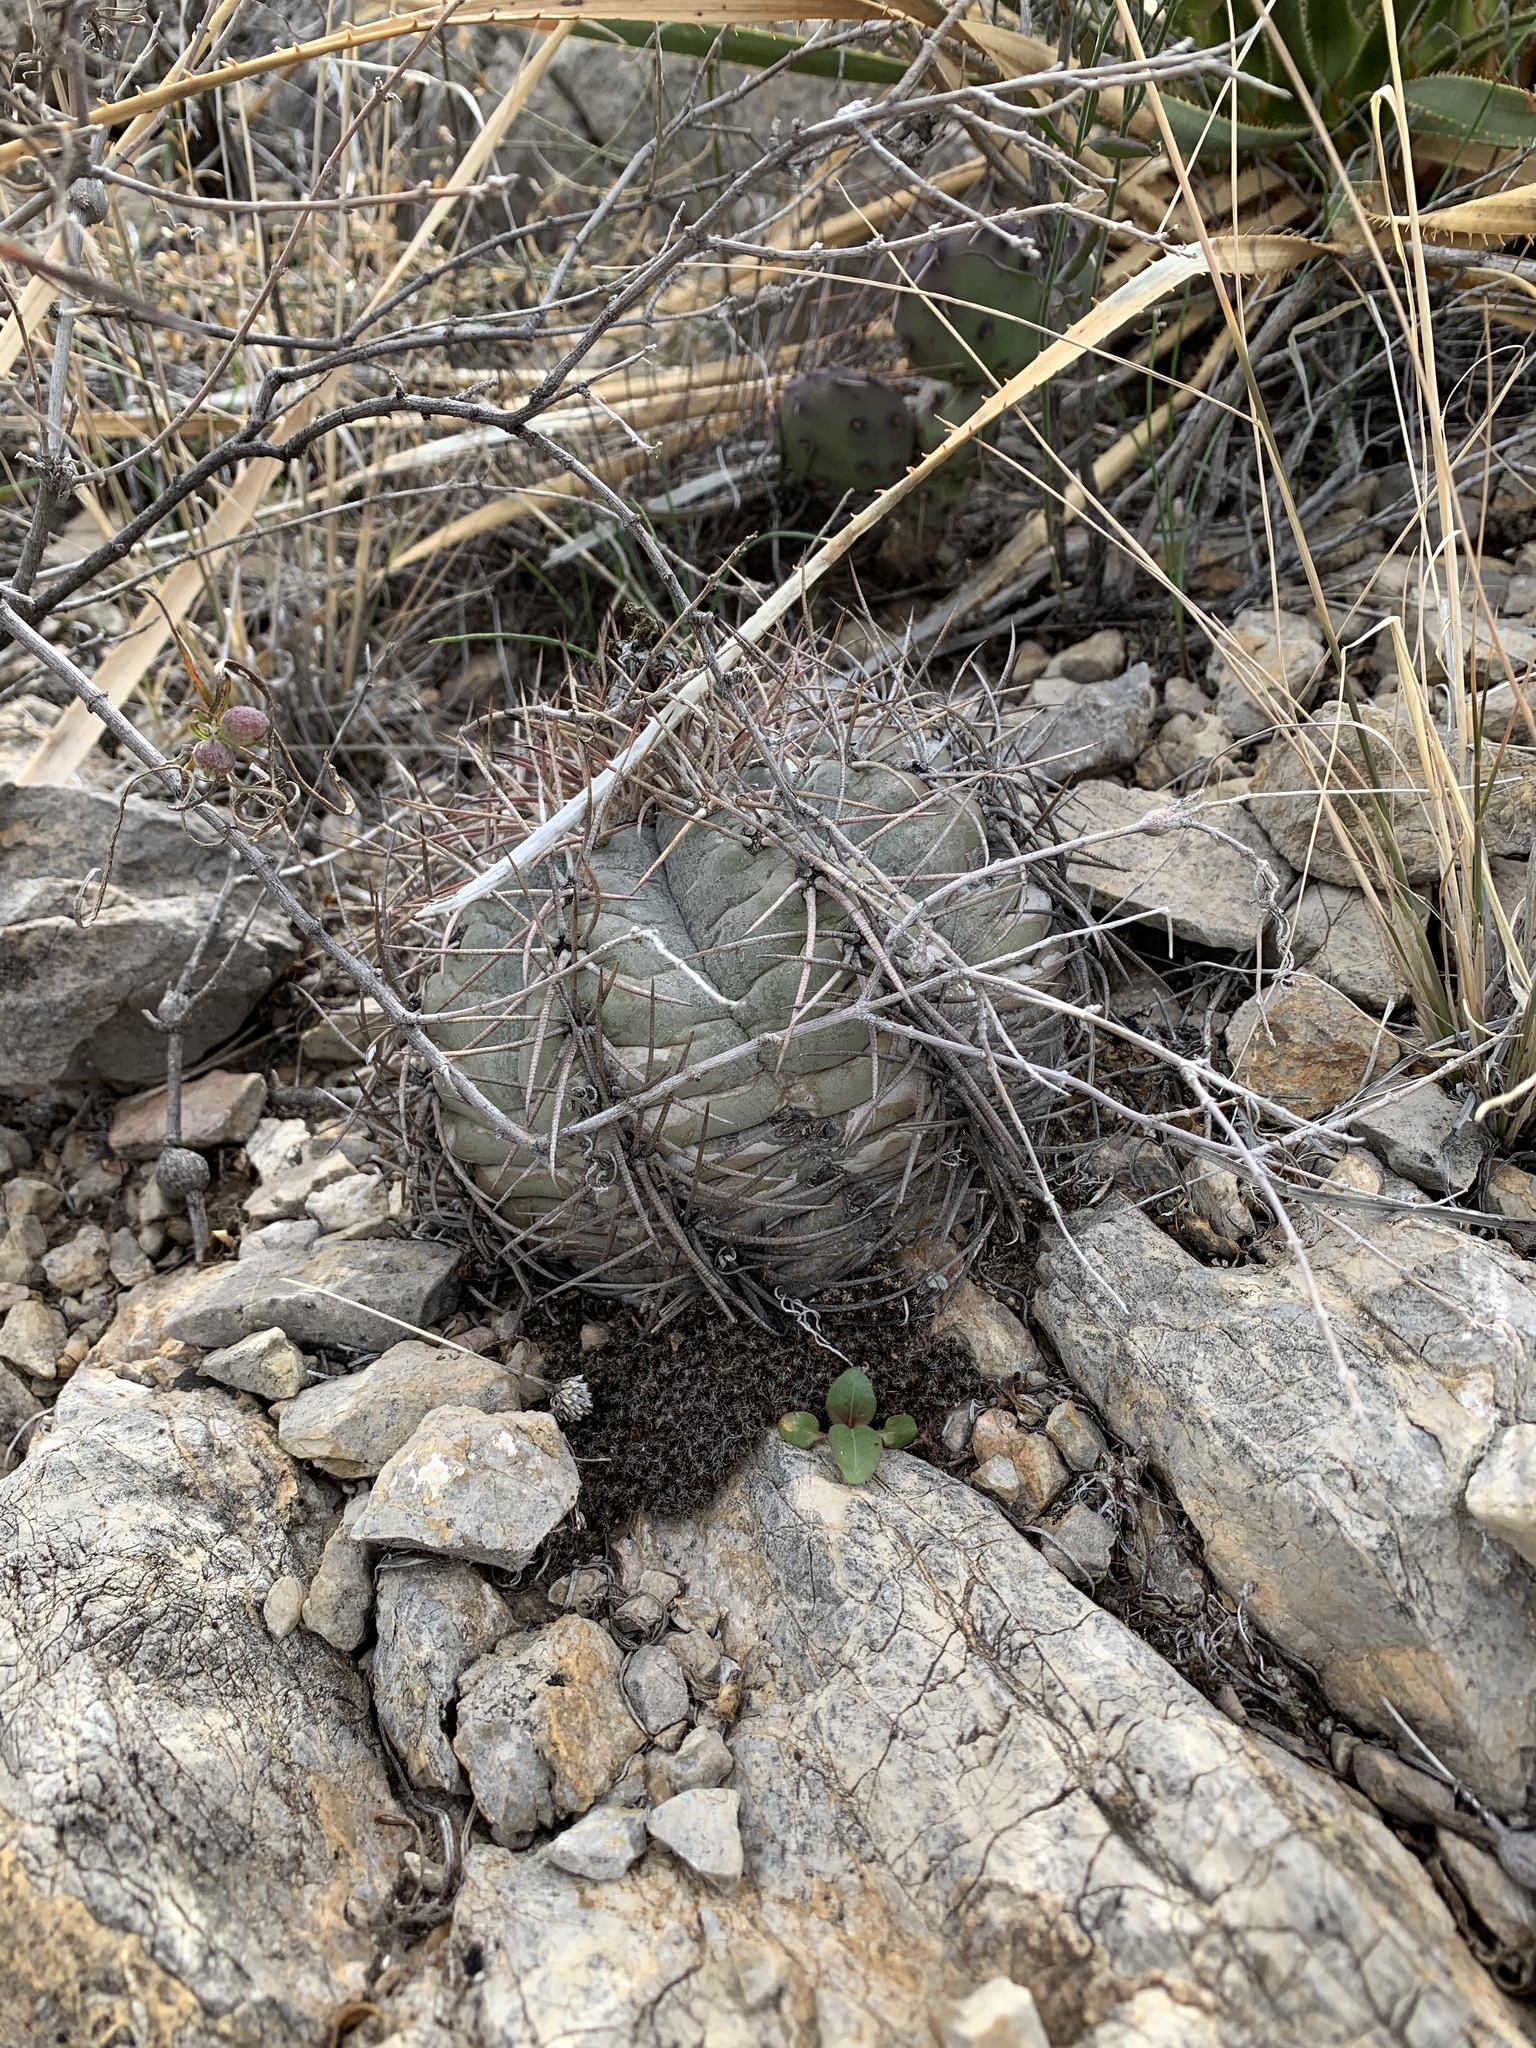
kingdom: Plantae
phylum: Tracheophyta
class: Magnoliopsida
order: Caryophyllales
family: Cactaceae
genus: Echinocactus
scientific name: Echinocactus horizonthalonius
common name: Devilshead
